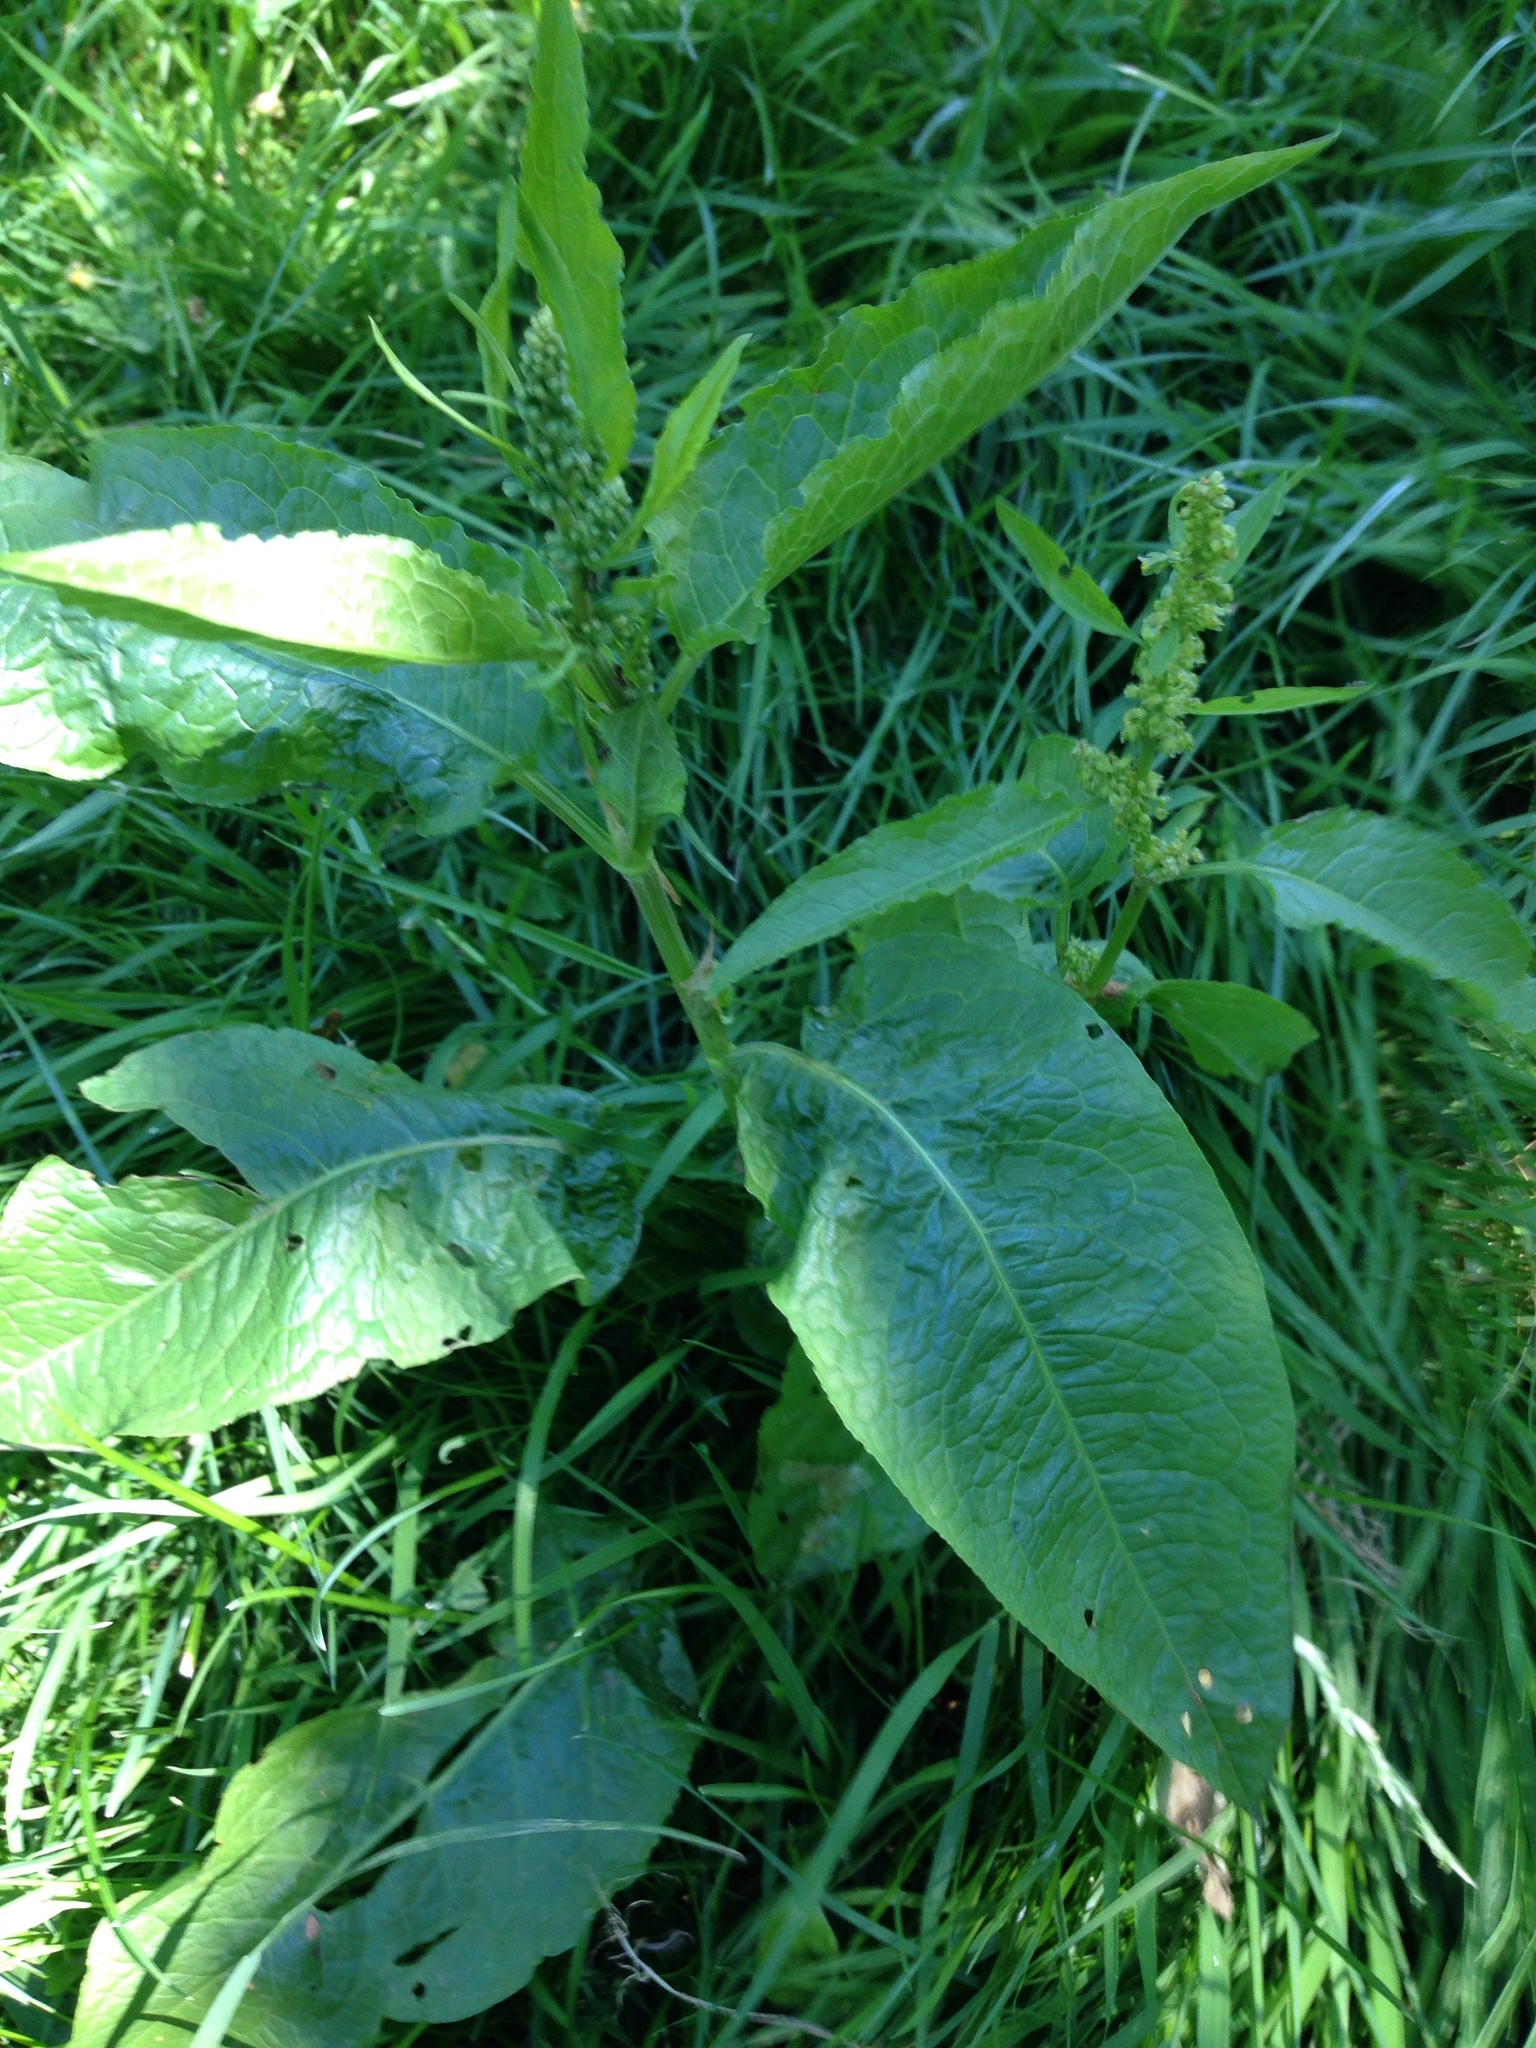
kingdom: Plantae
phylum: Tracheophyta
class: Magnoliopsida
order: Caryophyllales
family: Polygonaceae
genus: Rumex
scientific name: Rumex obtusifolius
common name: Bitter dock
